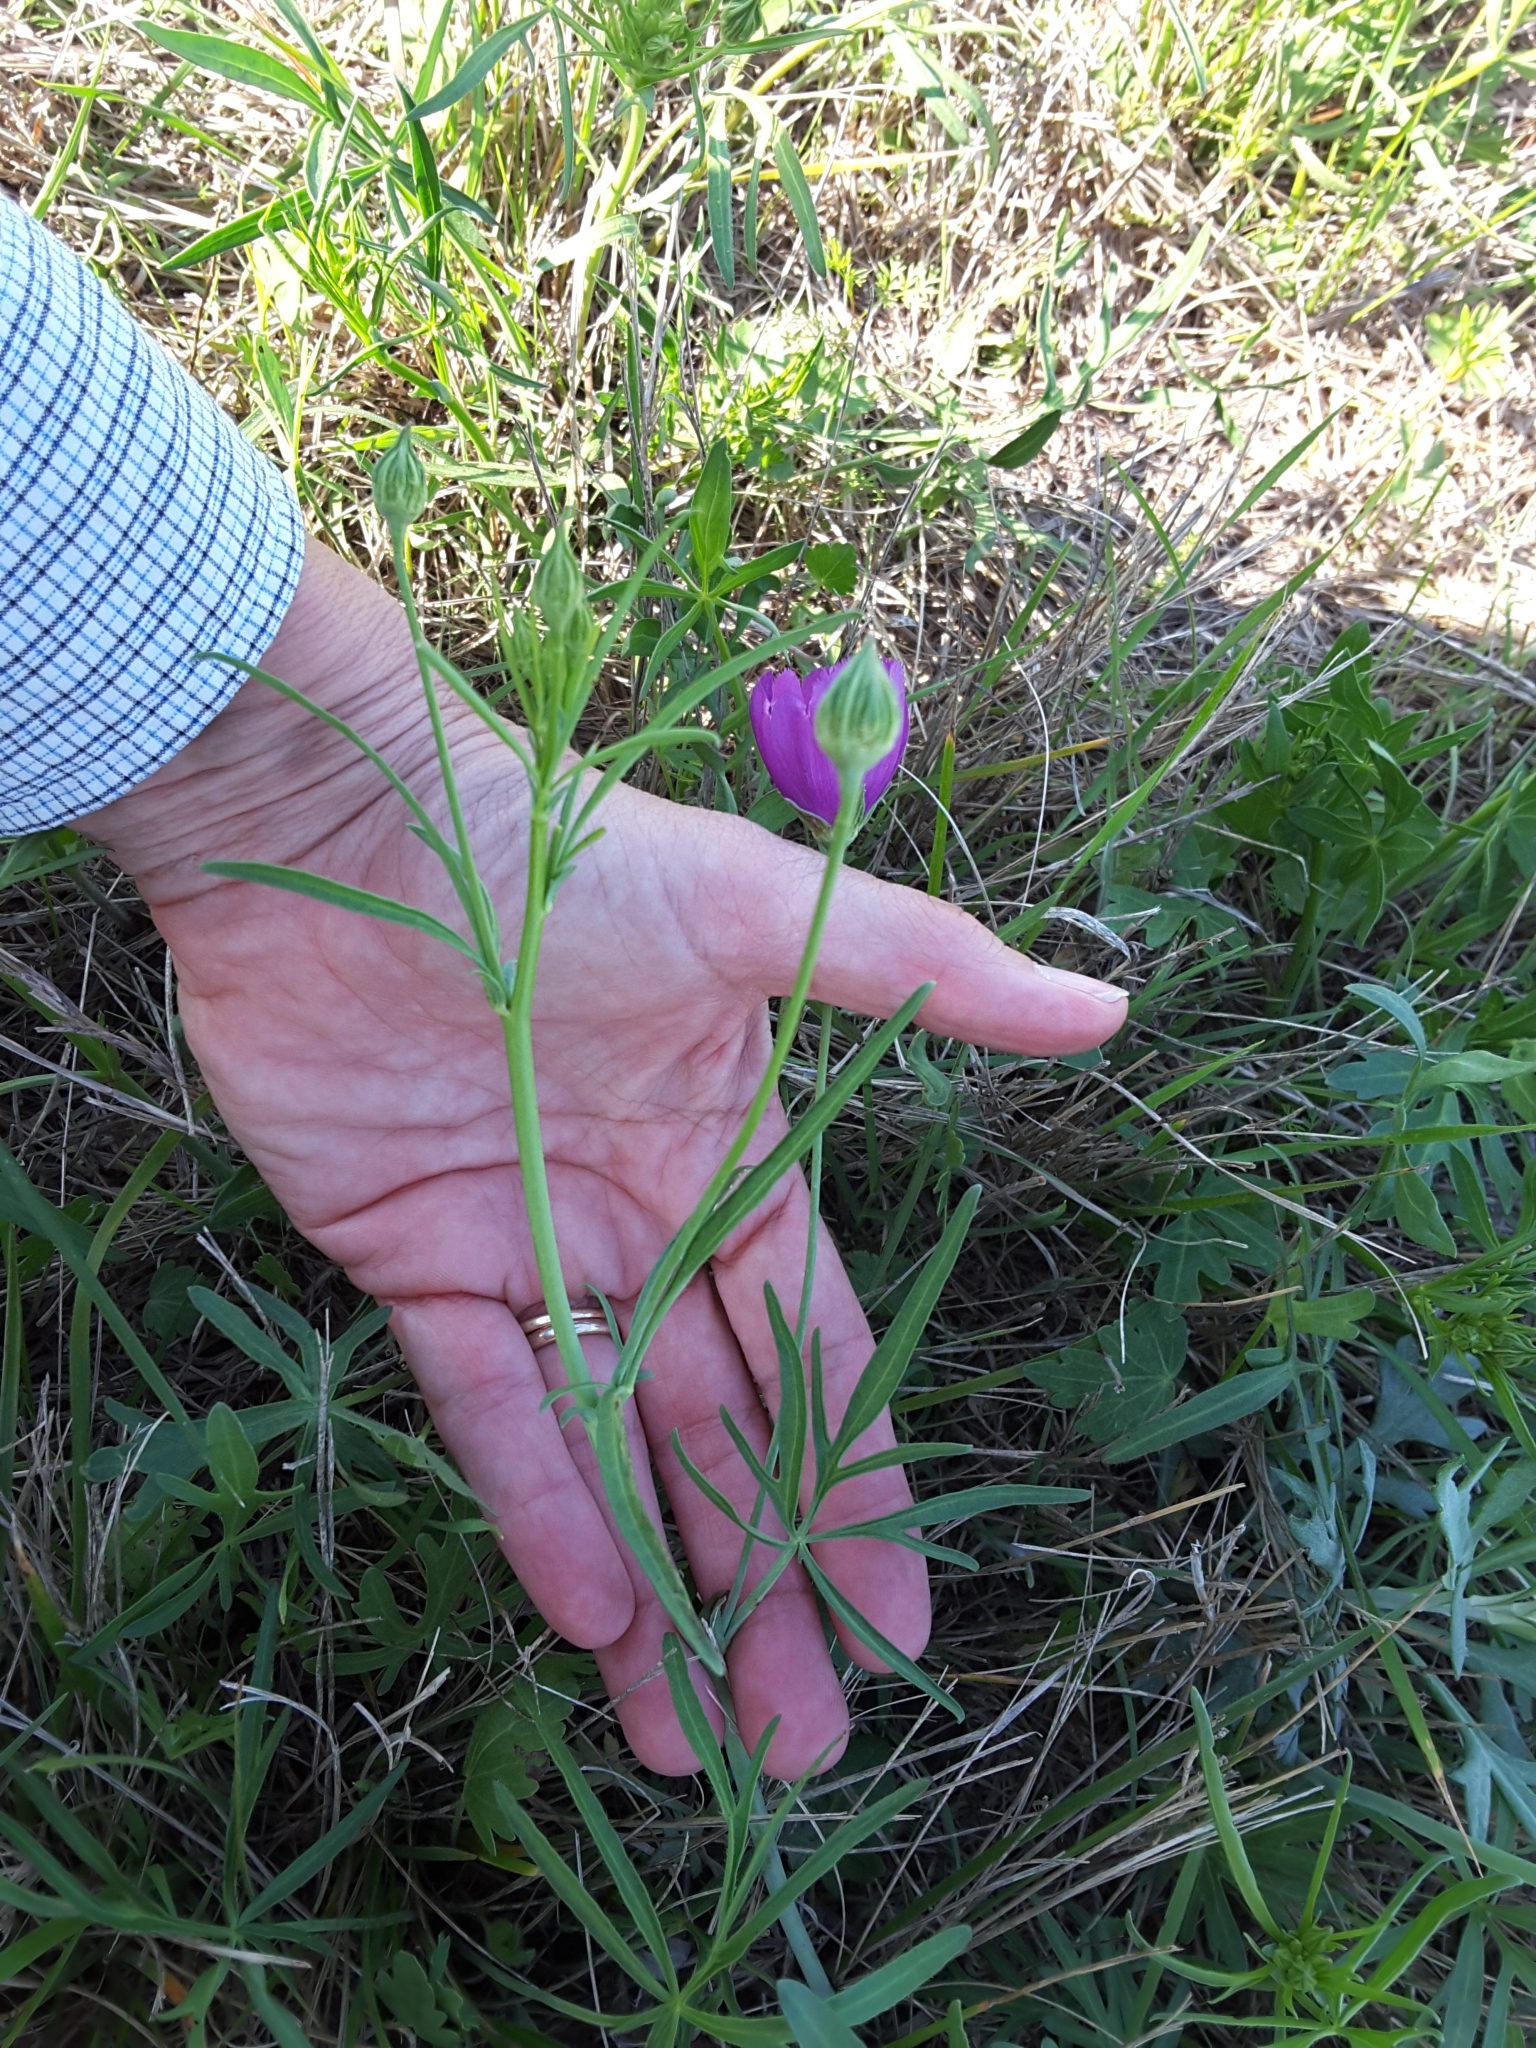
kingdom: Plantae
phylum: Tracheophyta
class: Magnoliopsida
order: Malvales
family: Malvaceae
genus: Callirhoe
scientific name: Callirhoe pedata
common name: Finger poppy-mallow
